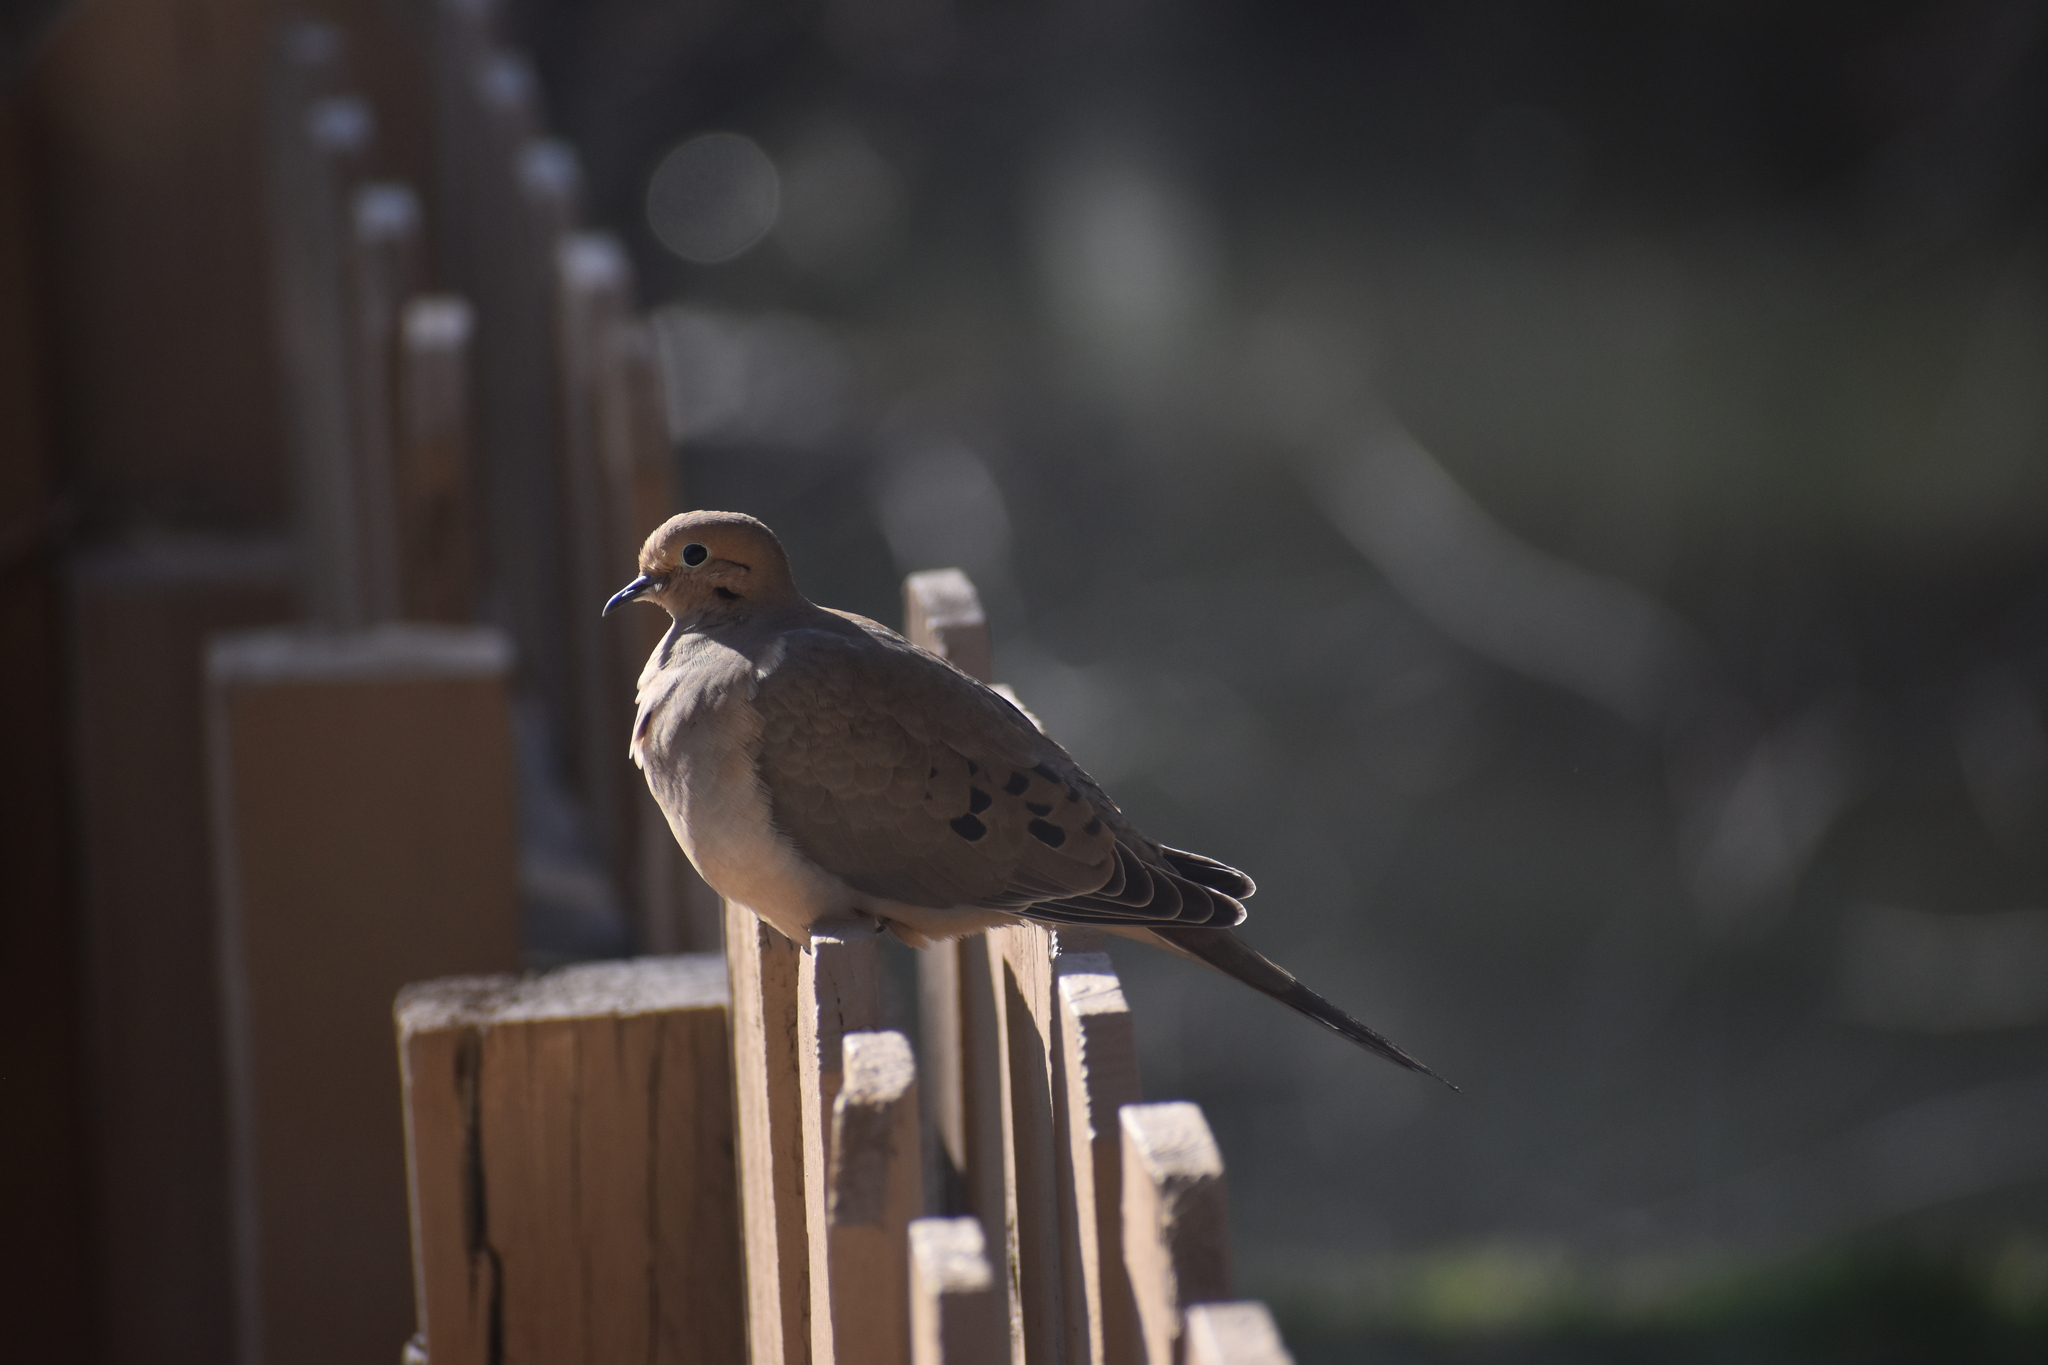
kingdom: Animalia
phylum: Chordata
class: Aves
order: Columbiformes
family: Columbidae
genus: Zenaida
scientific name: Zenaida macroura
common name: Mourning dove
